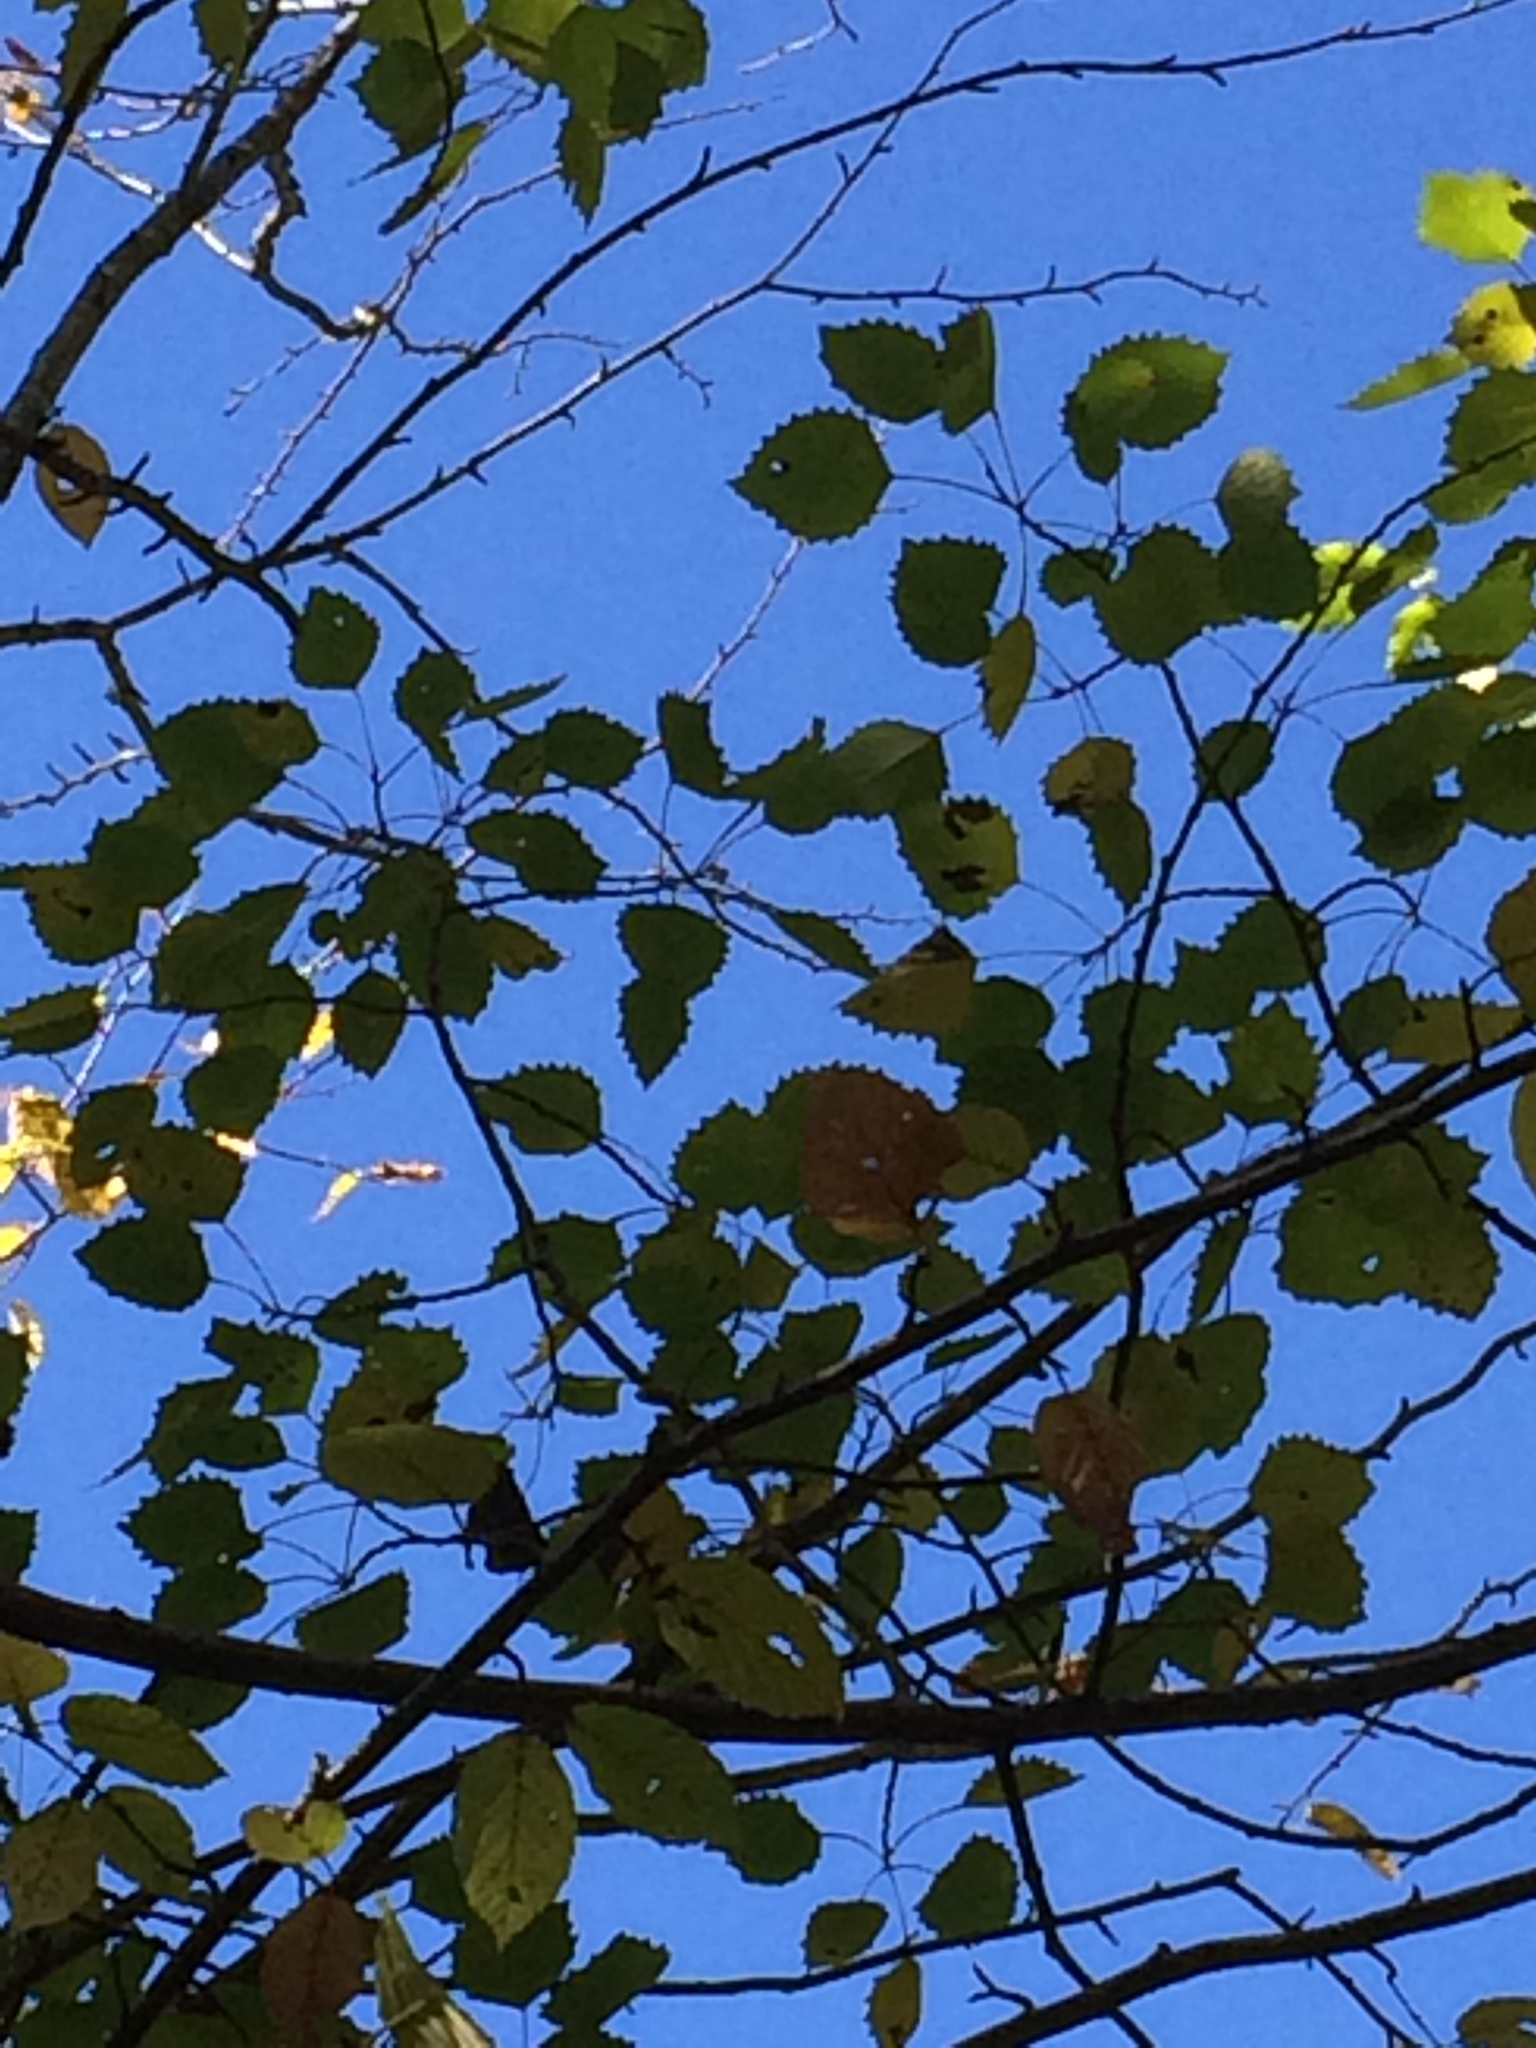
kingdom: Plantae
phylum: Tracheophyta
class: Magnoliopsida
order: Malpighiales
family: Salicaceae
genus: Populus
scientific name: Populus grandidentata
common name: Bigtooth aspen
